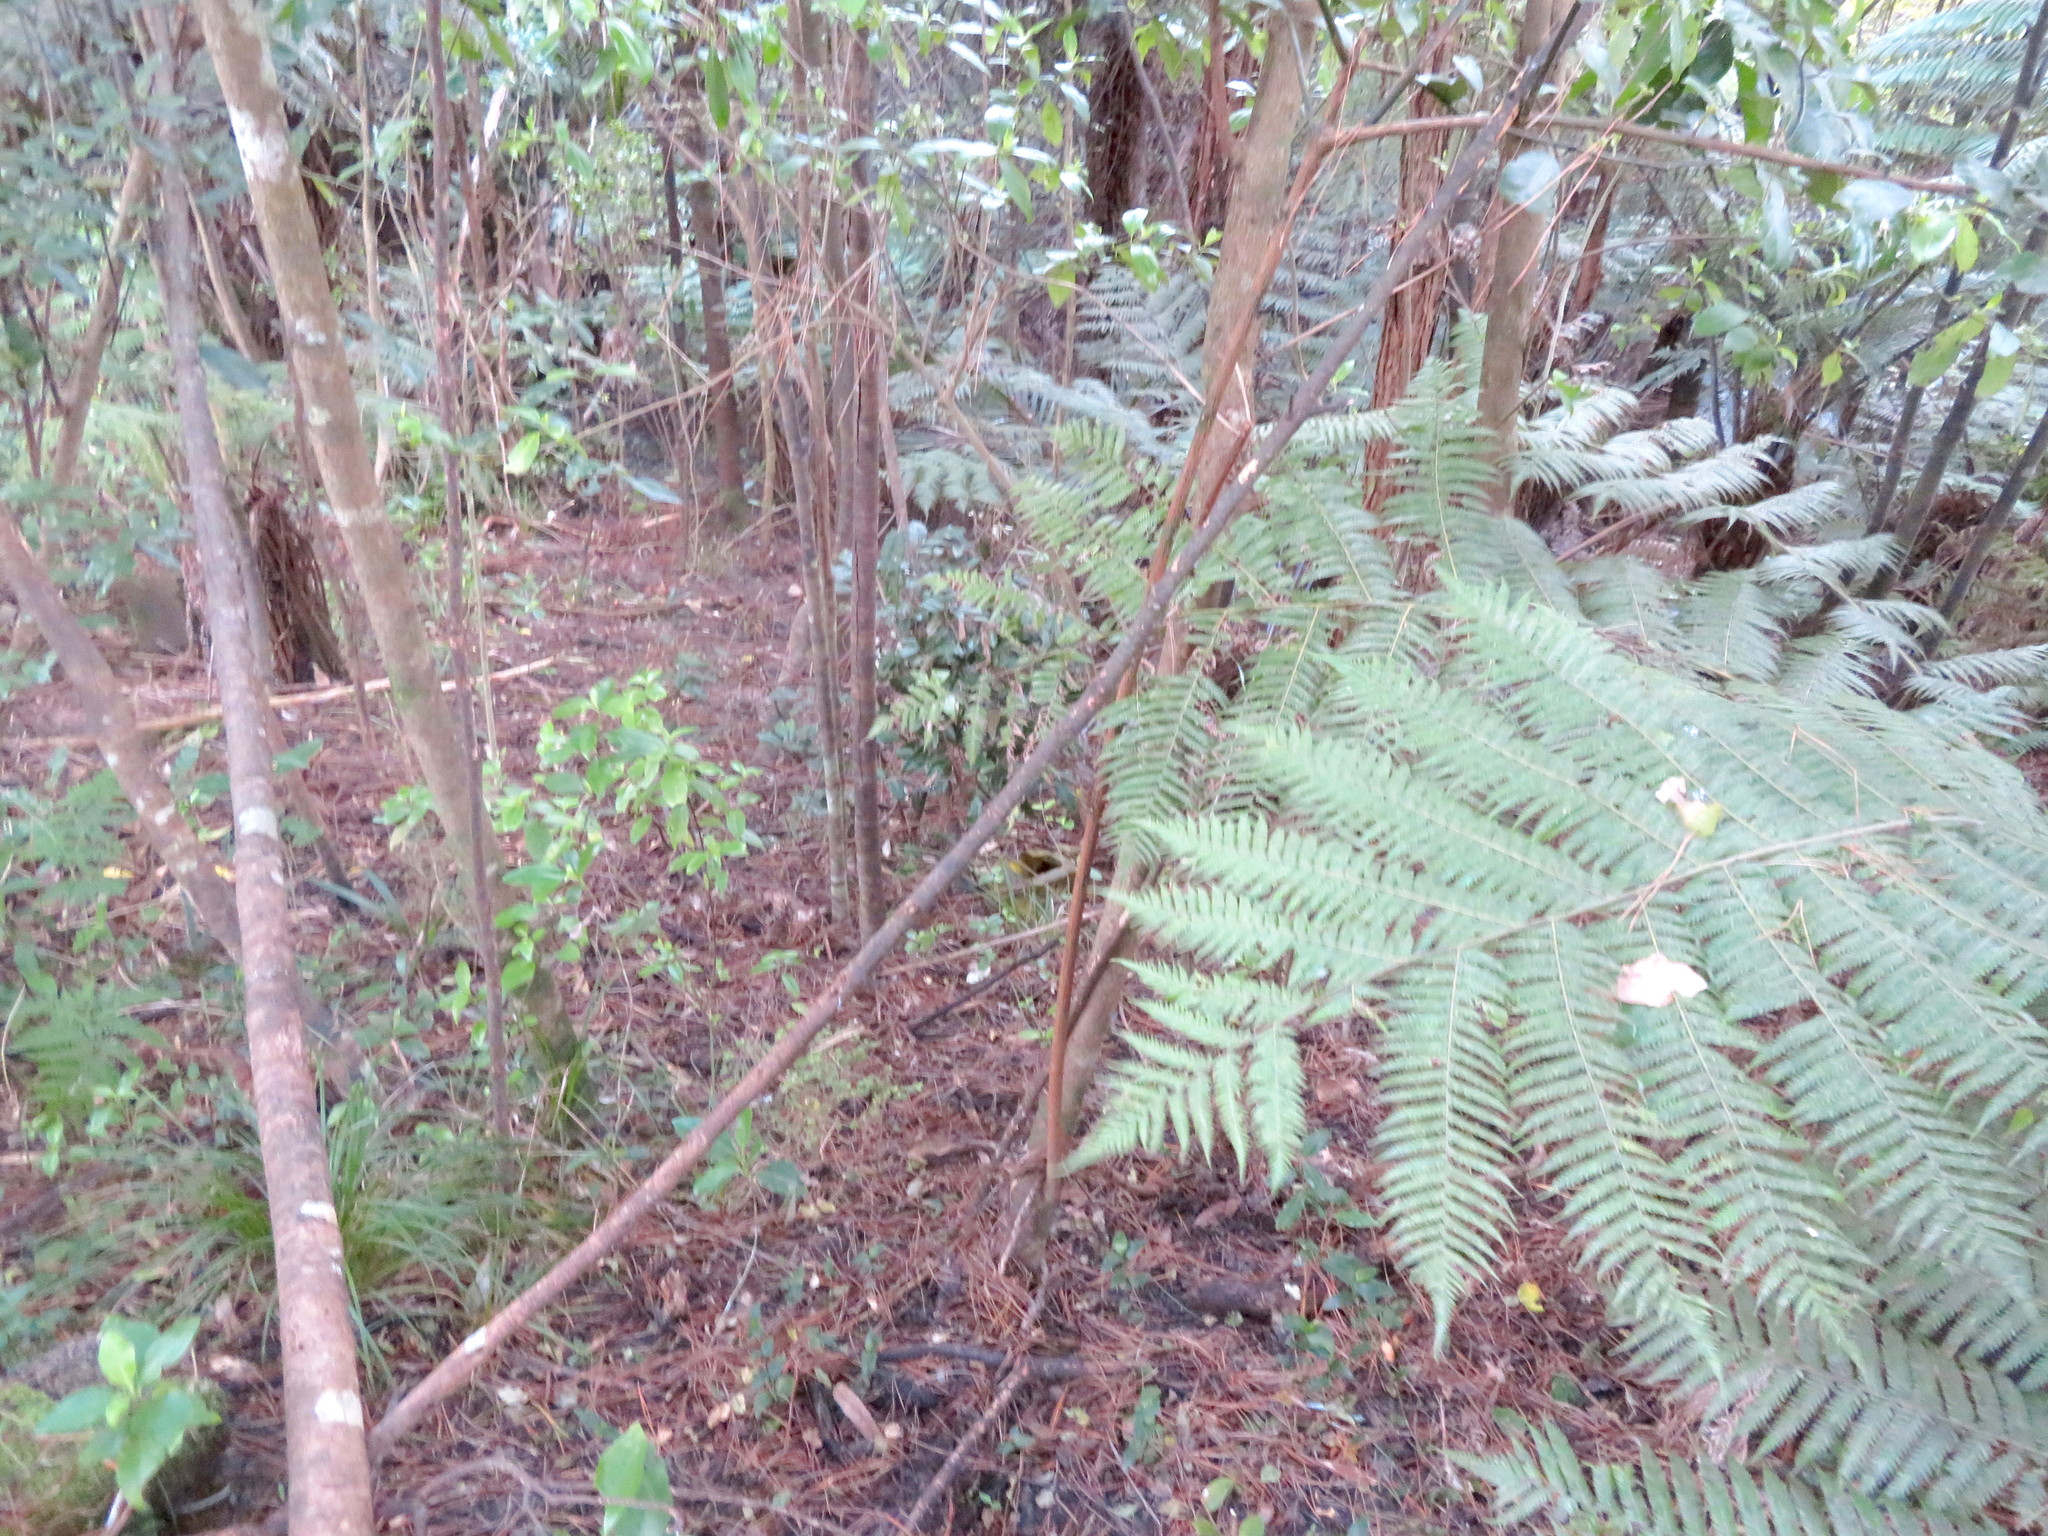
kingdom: Plantae
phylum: Tracheophyta
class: Polypodiopsida
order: Cyatheales
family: Cyatheaceae
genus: Alsophila
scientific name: Alsophila dealbata
